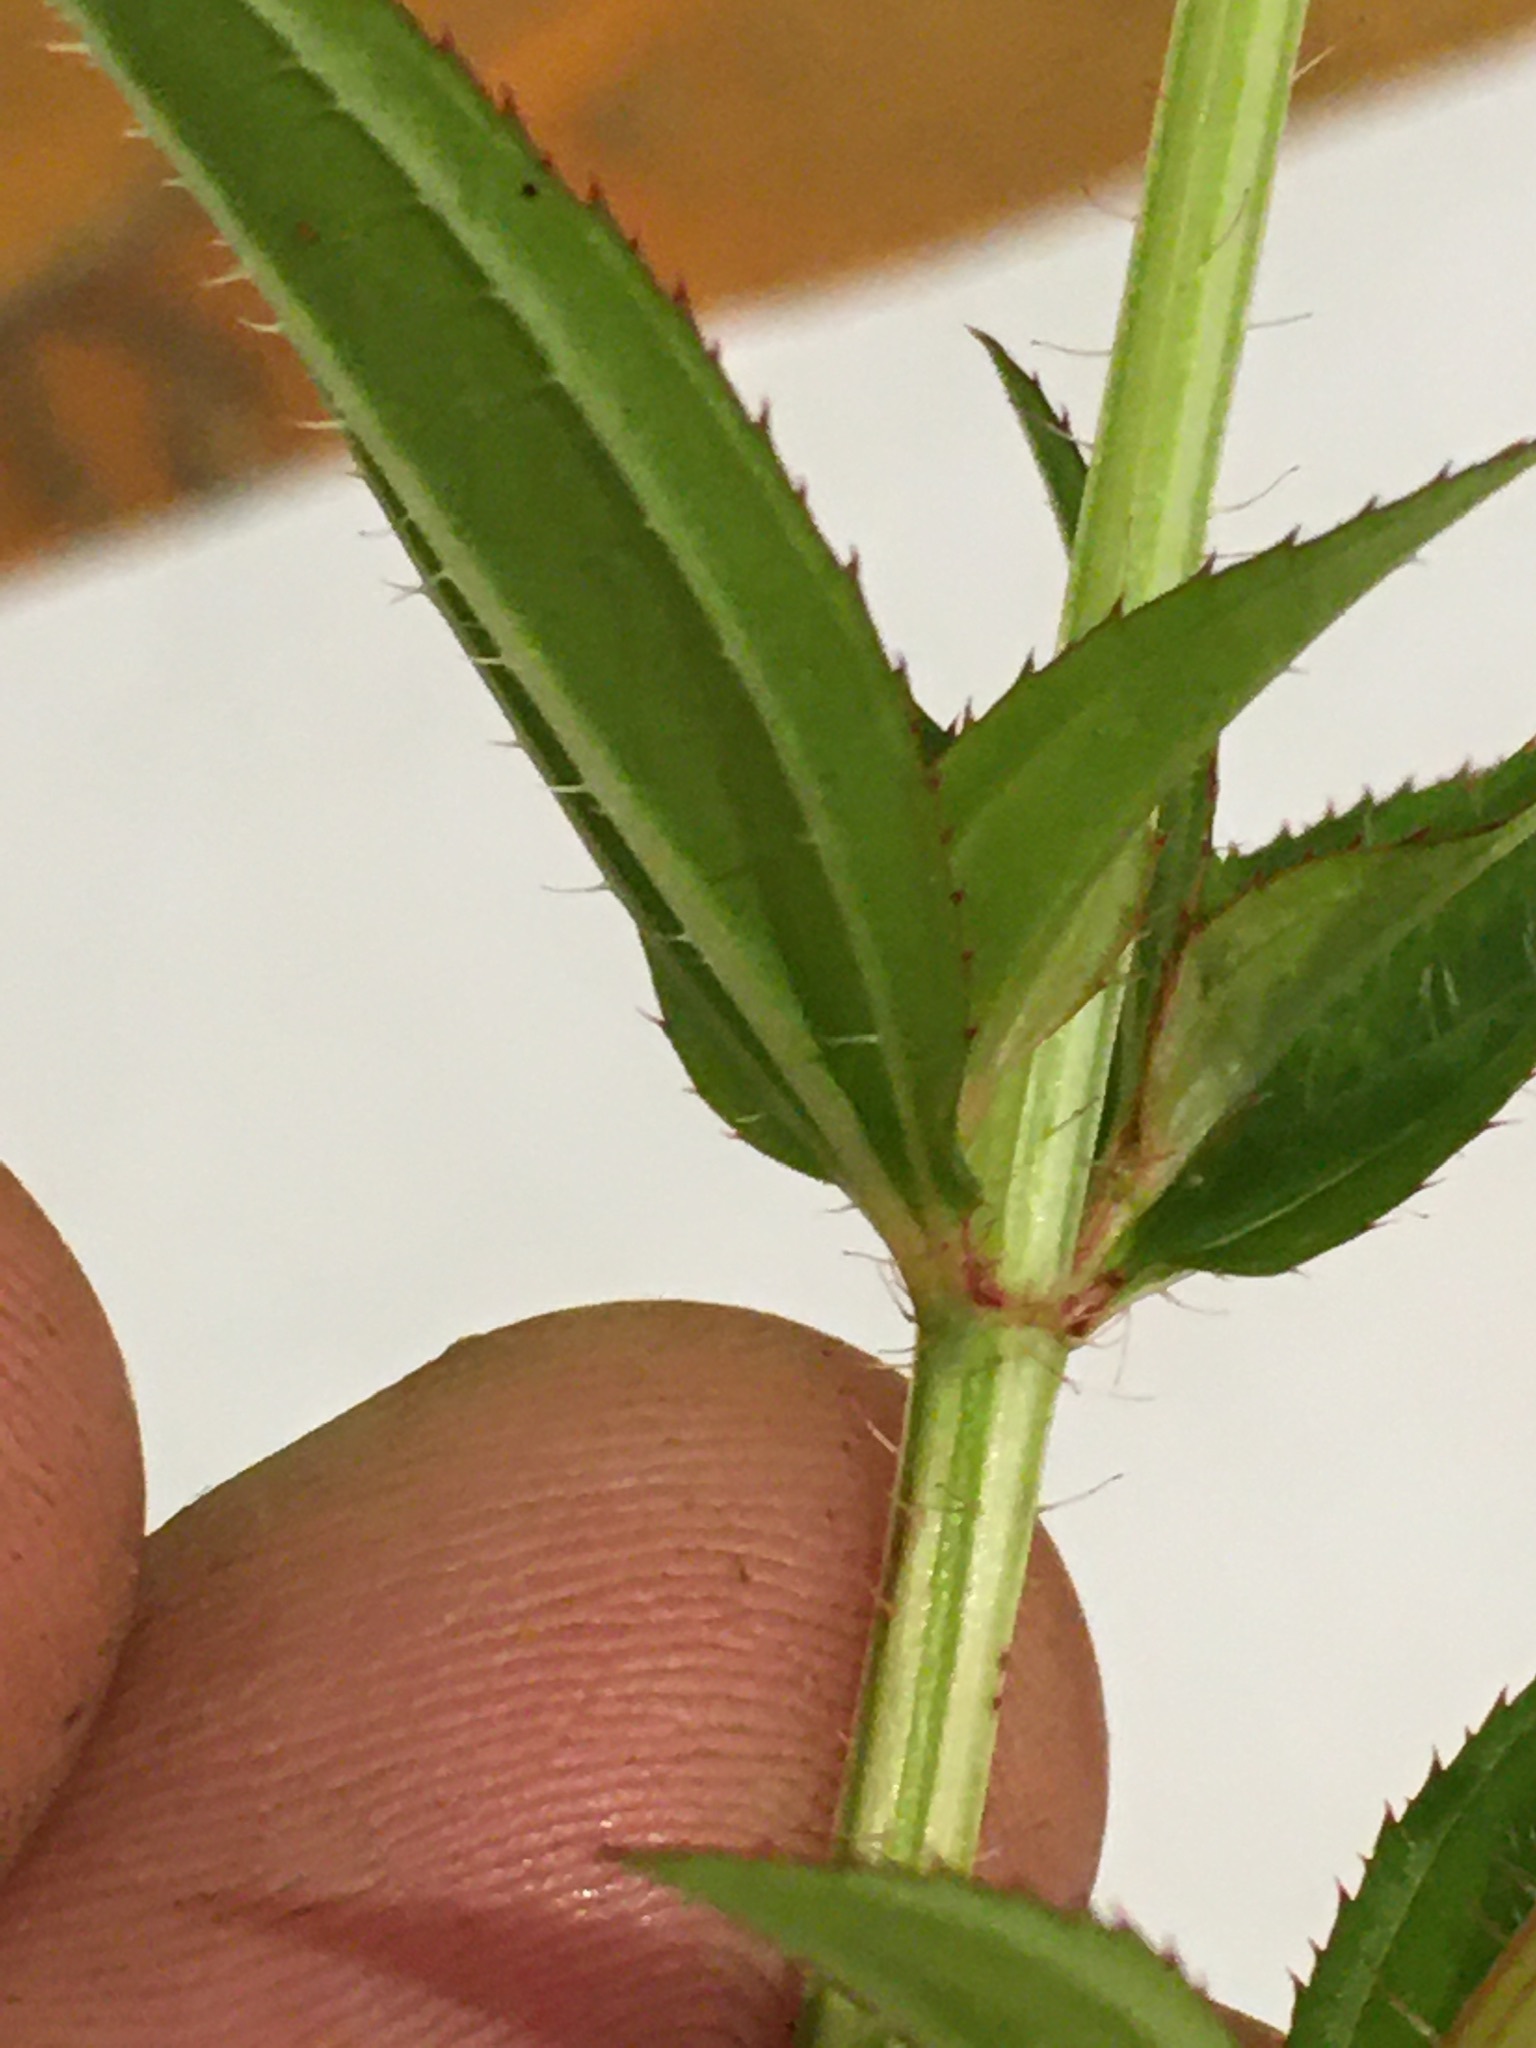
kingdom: Plantae
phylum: Tracheophyta
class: Magnoliopsida
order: Myrtales
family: Melastomataceae
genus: Rhexia
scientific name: Rhexia virginica
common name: Common meadow beauty
